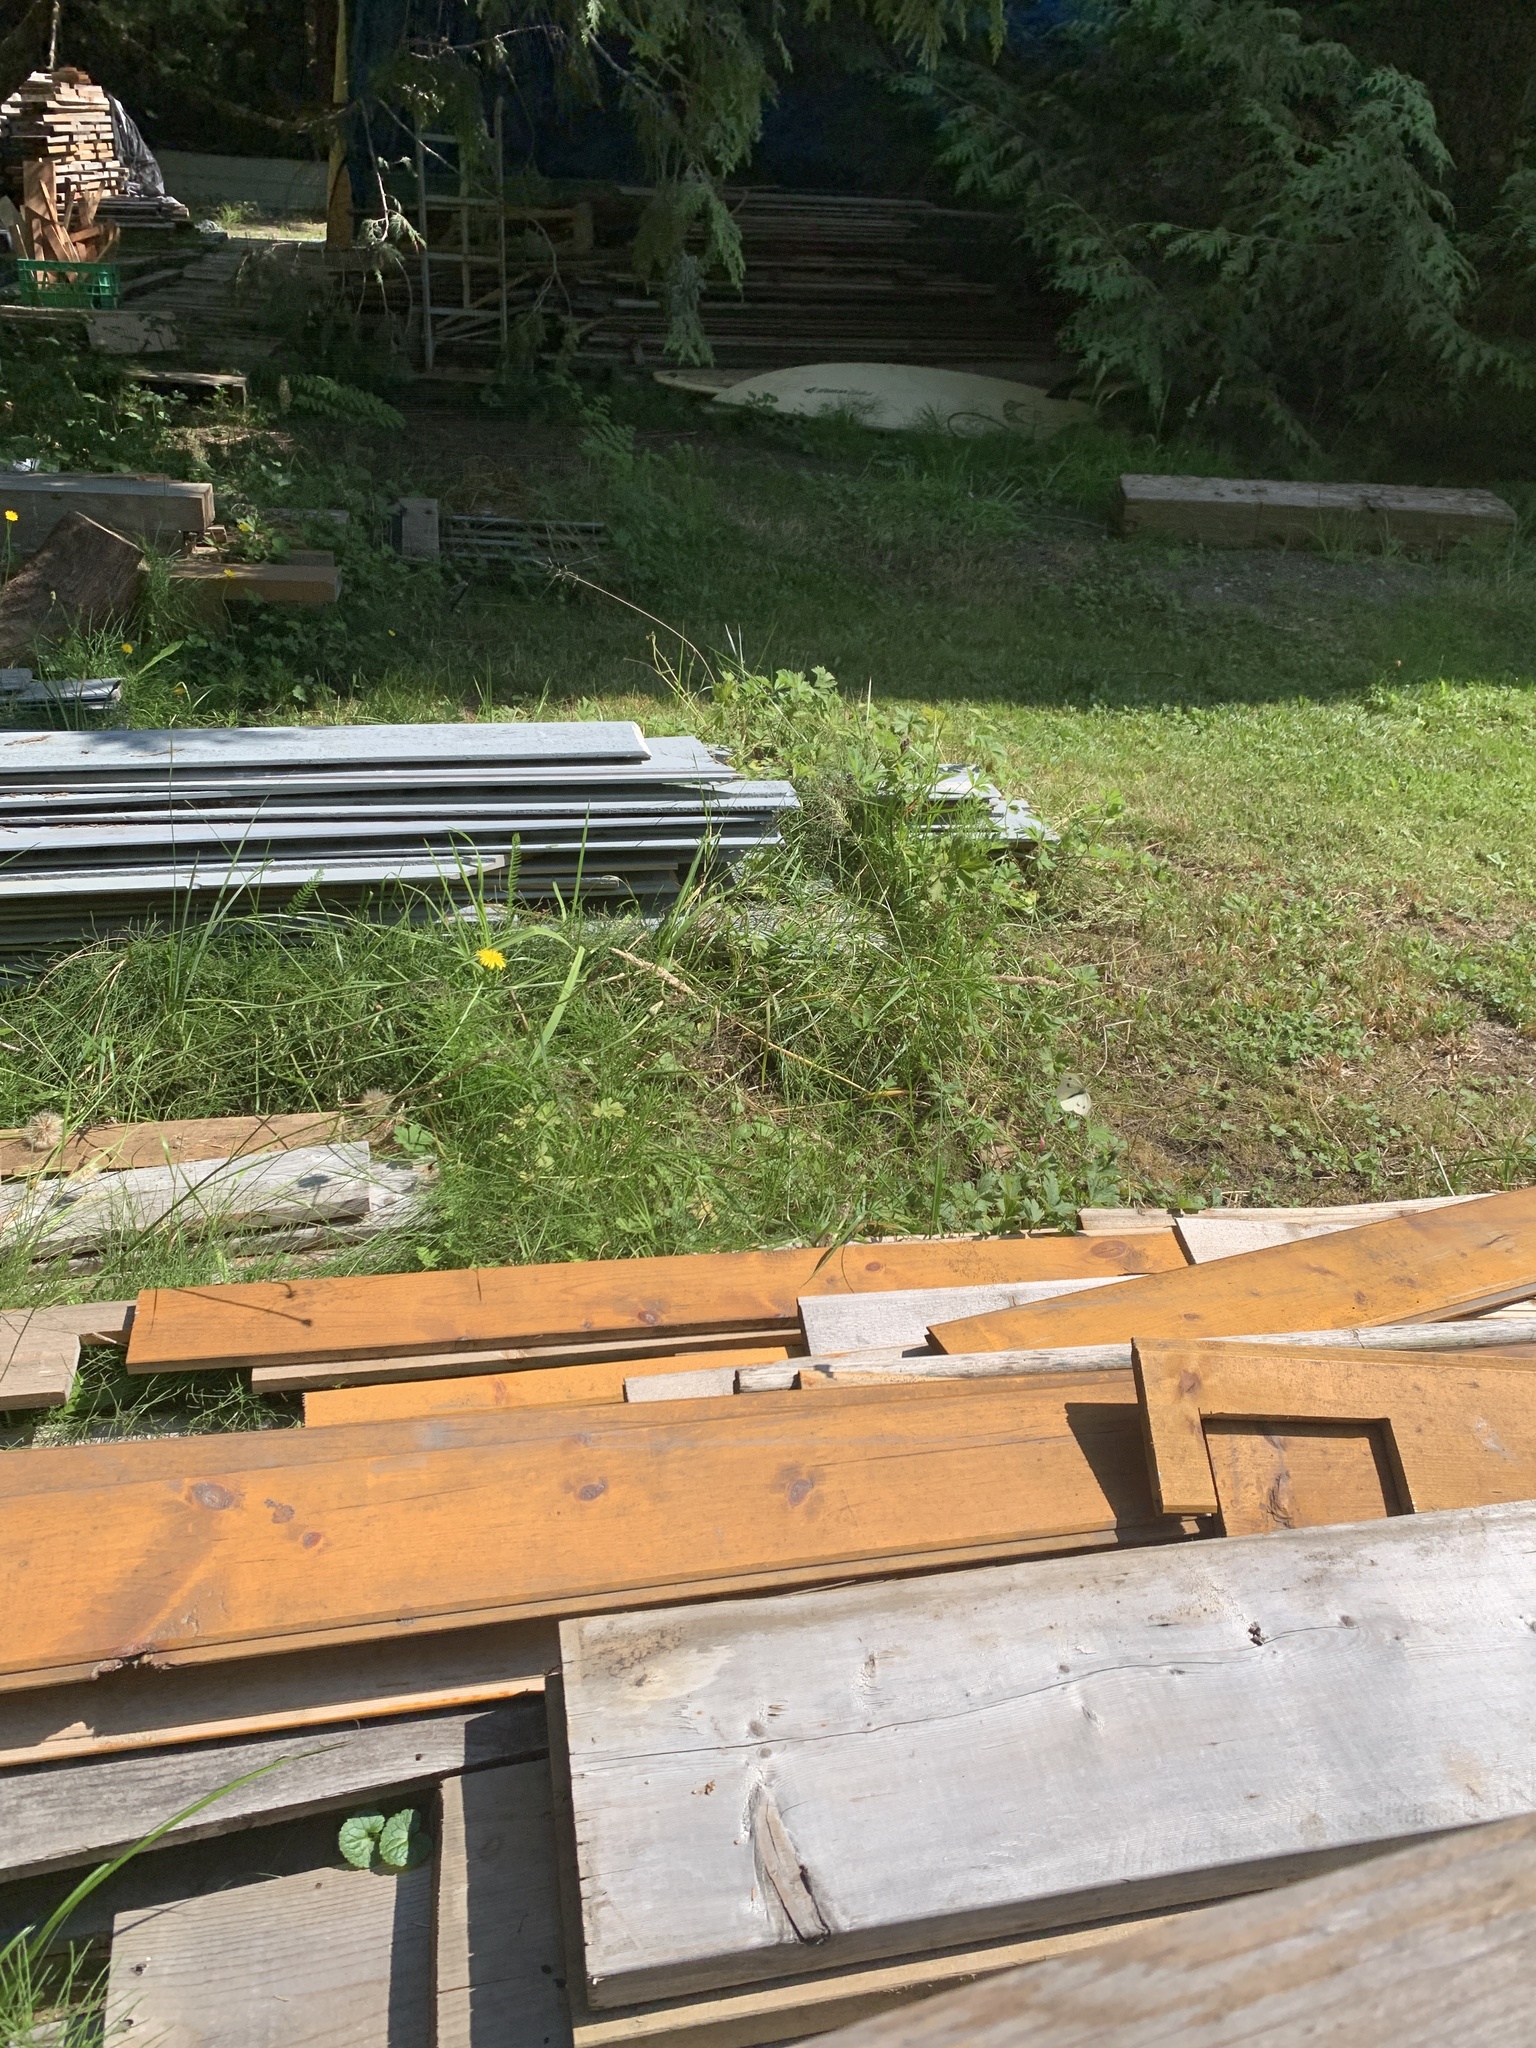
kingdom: Animalia
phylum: Arthropoda
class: Insecta
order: Lepidoptera
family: Pieridae
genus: Pieris
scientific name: Pieris rapae
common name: Small white
